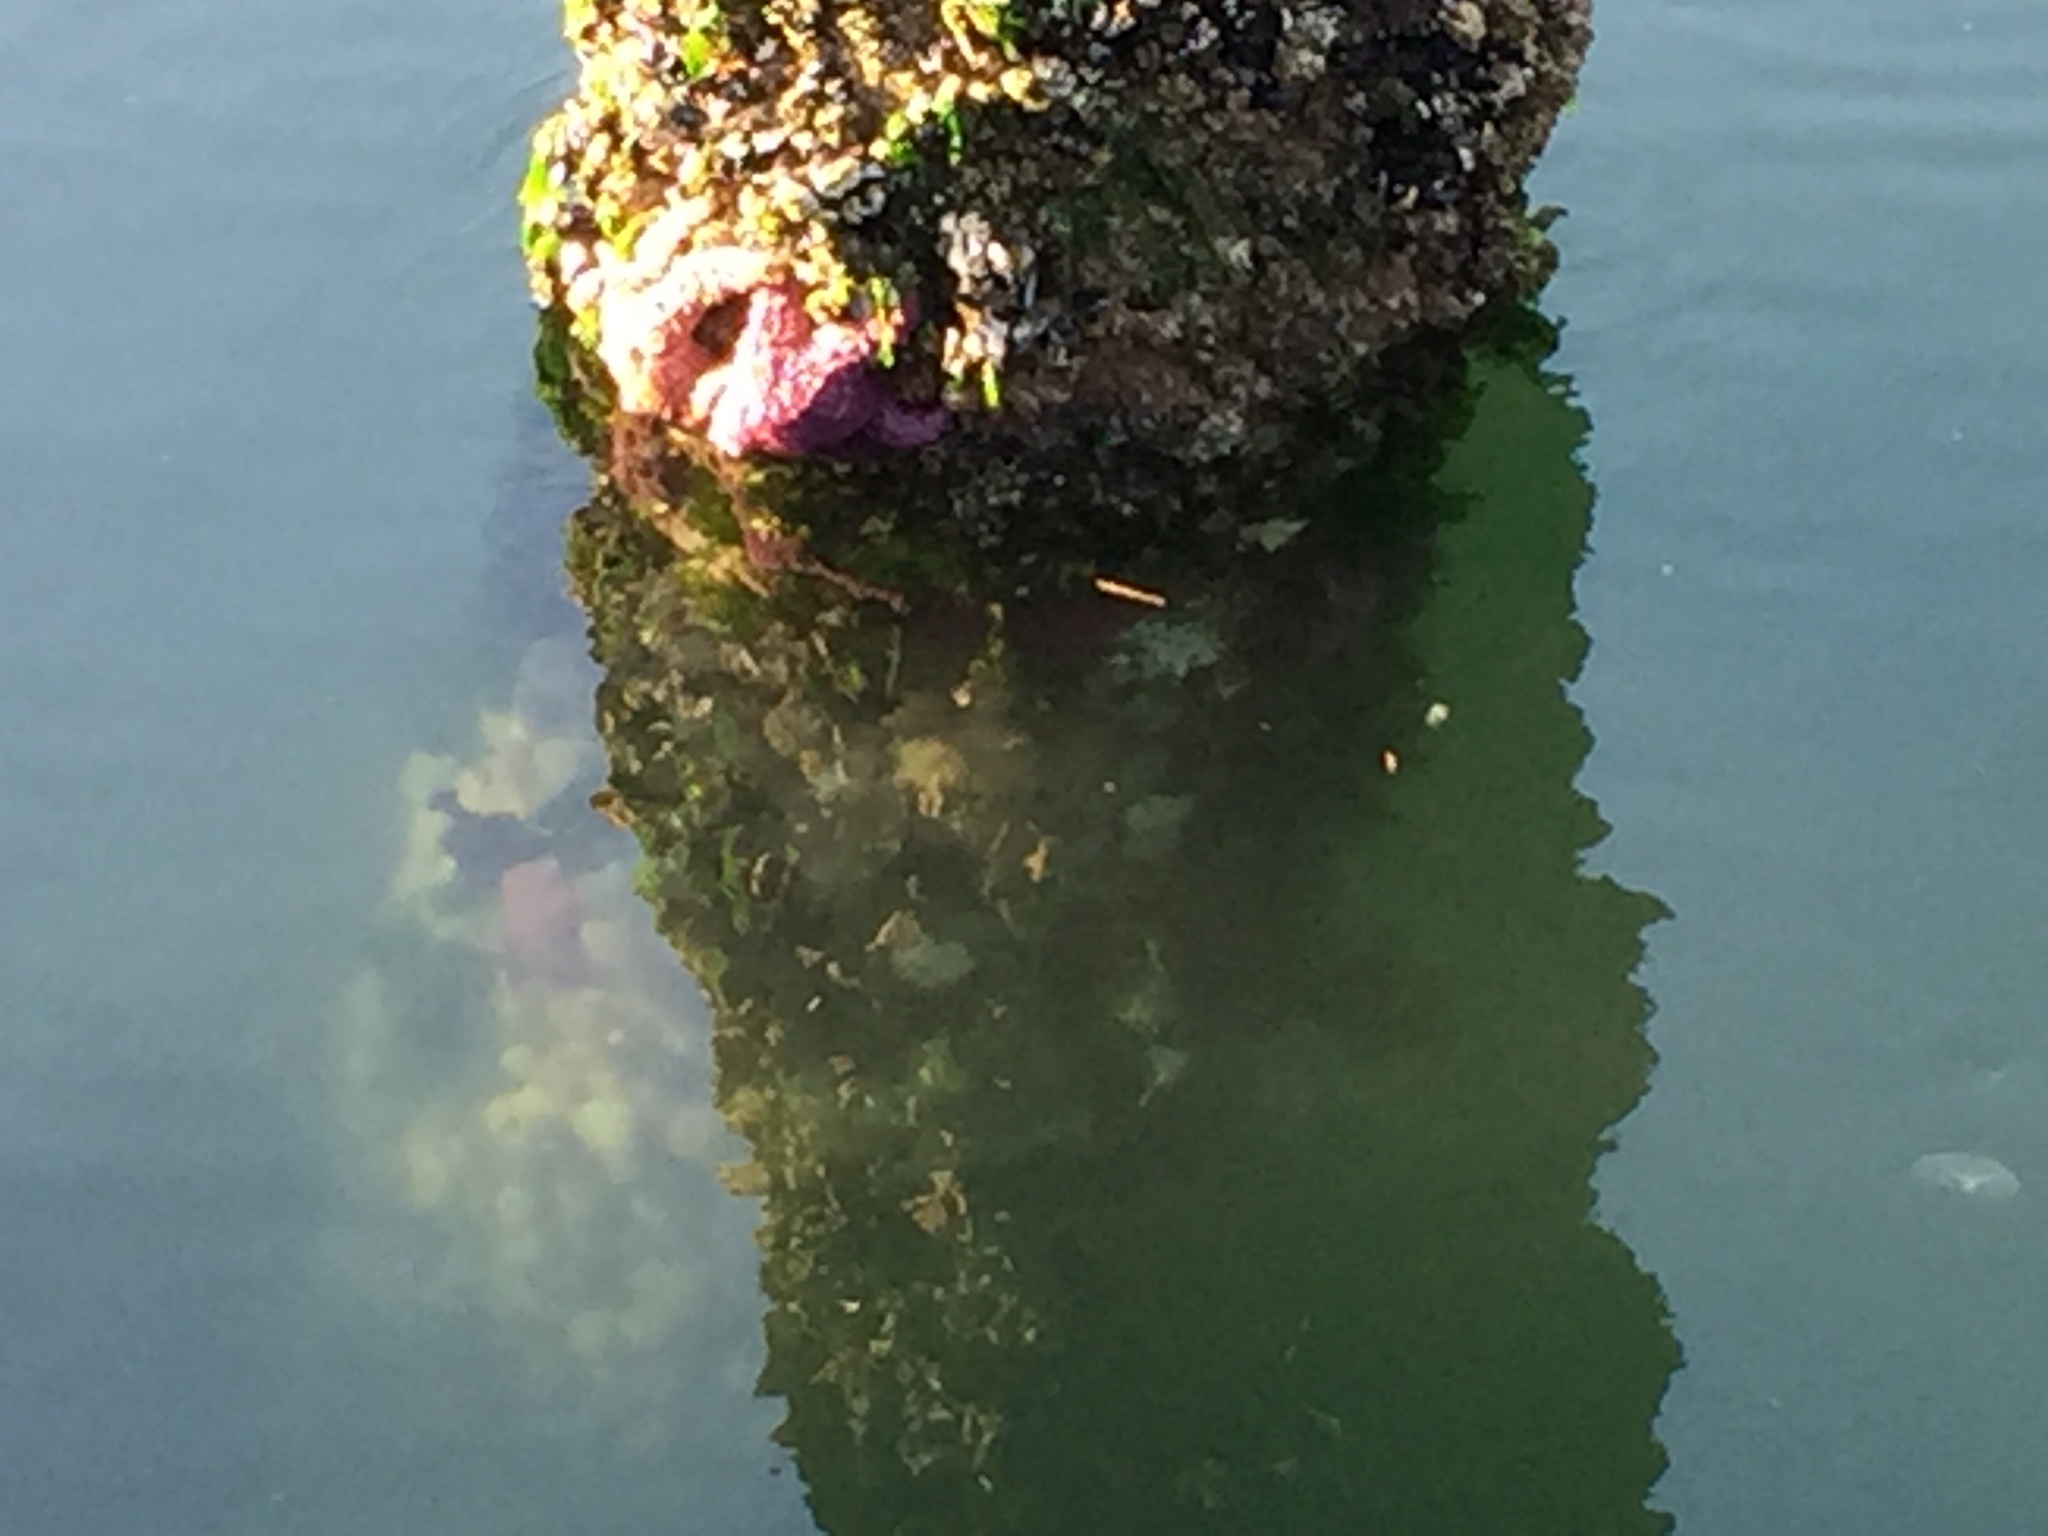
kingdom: Animalia
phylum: Echinodermata
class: Asteroidea
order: Forcipulatida
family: Asteriidae
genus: Pisaster
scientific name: Pisaster ochraceus
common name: Ochre stars
